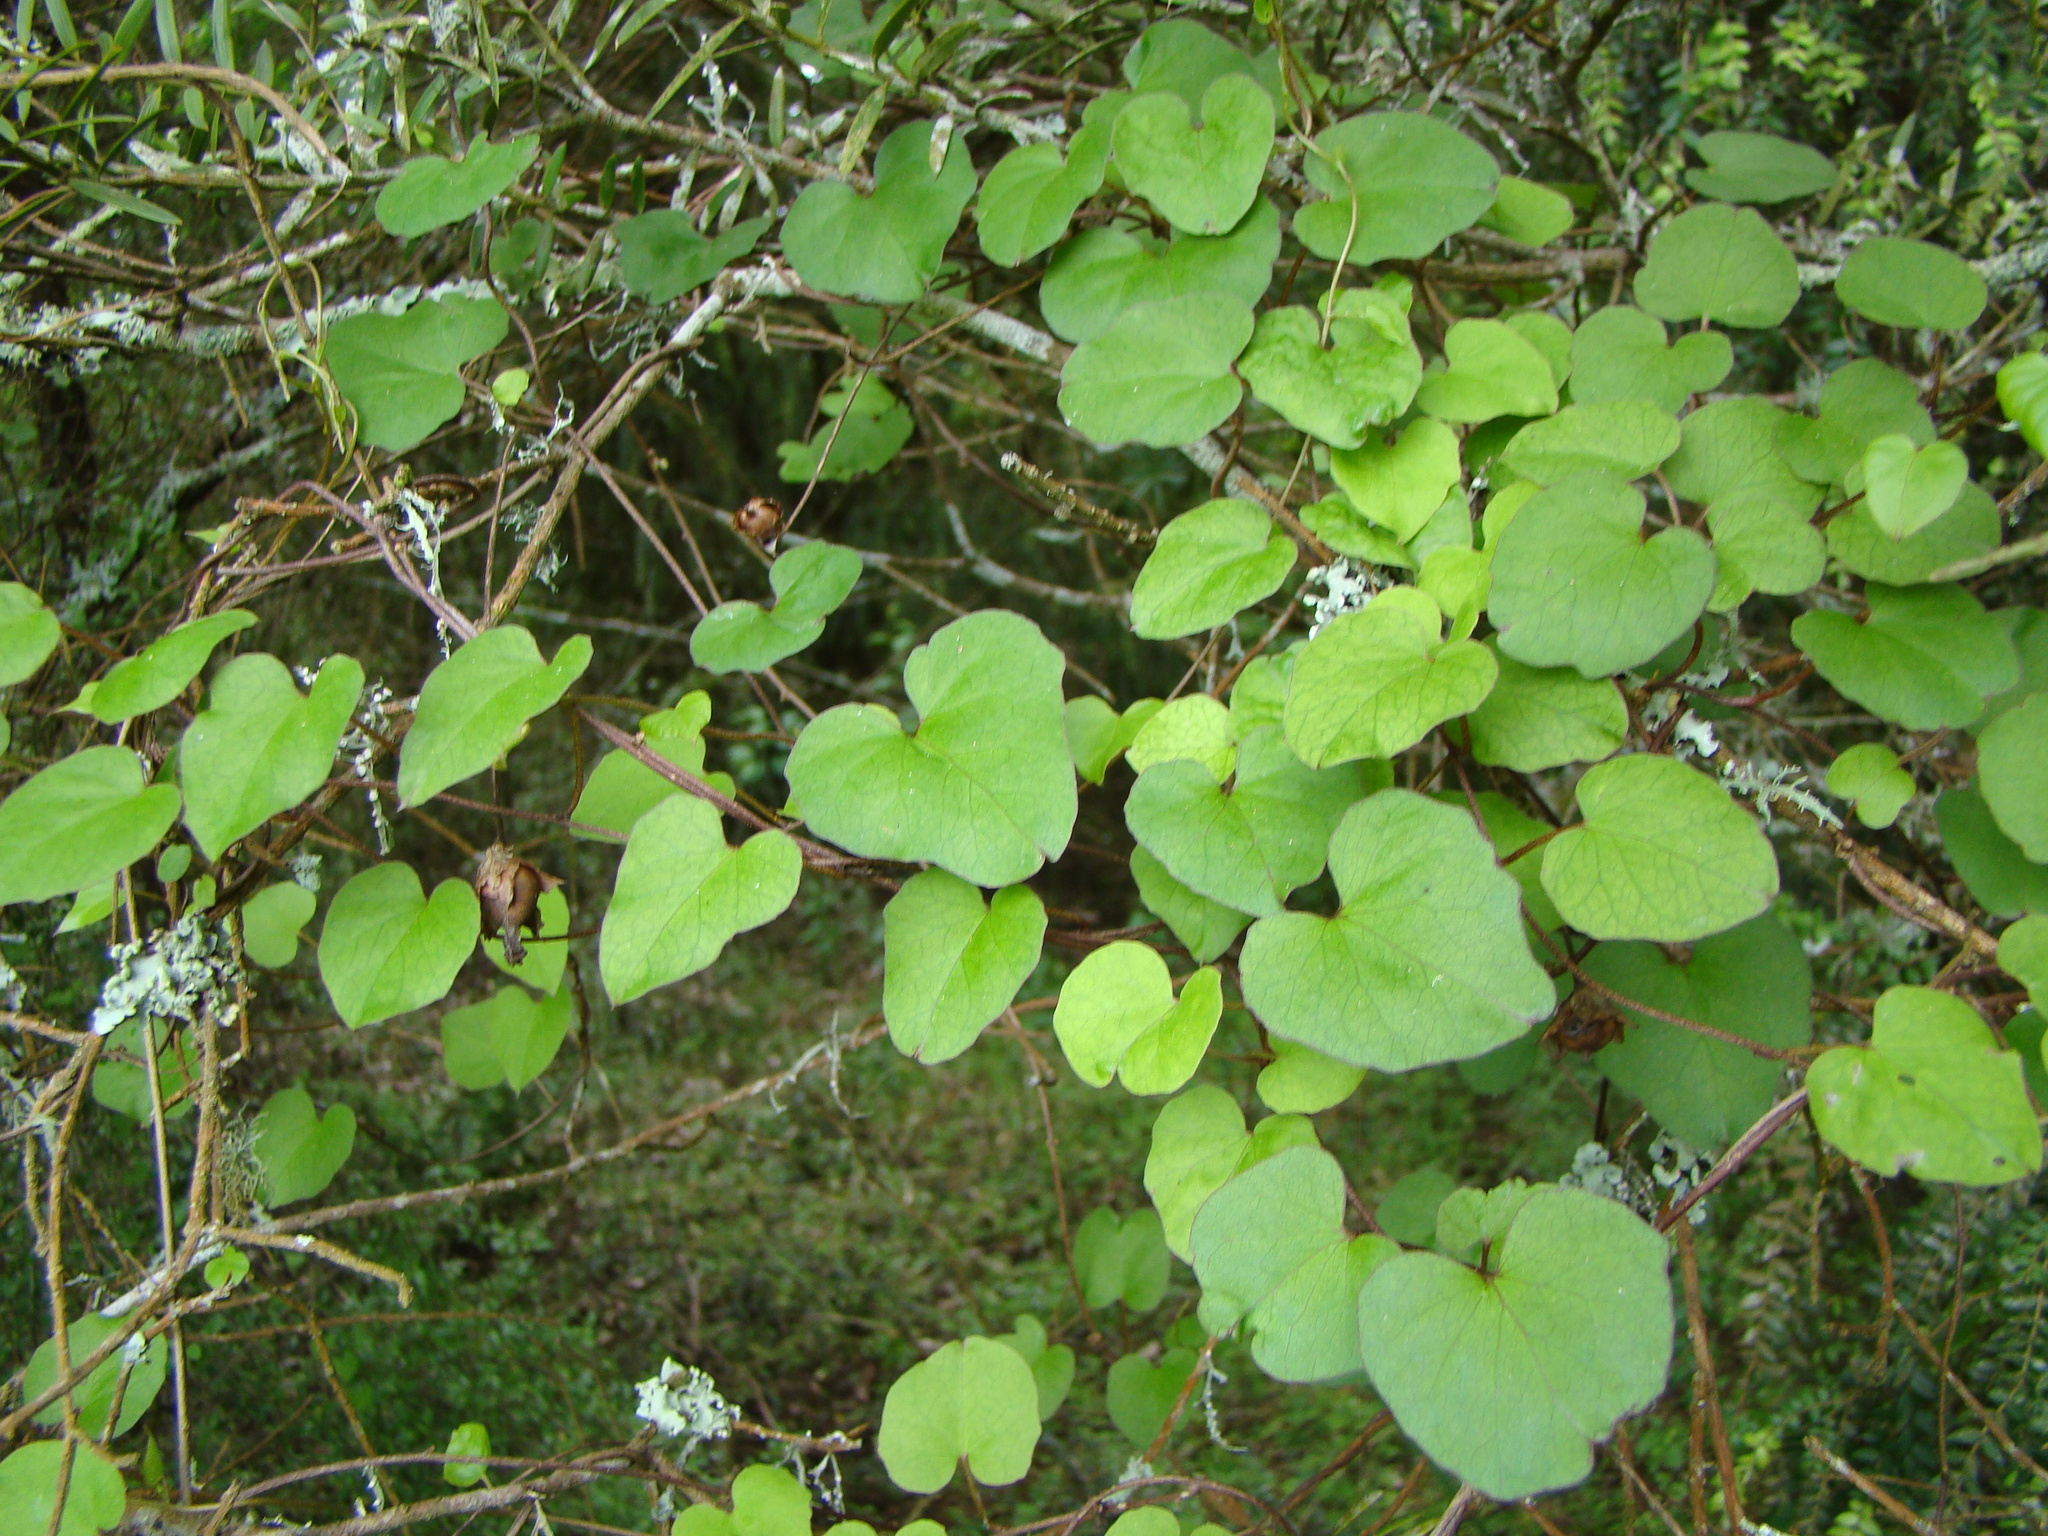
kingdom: Plantae
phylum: Tracheophyta
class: Magnoliopsida
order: Solanales
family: Convolvulaceae
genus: Calystegia
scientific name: Calystegia tuguriorum
